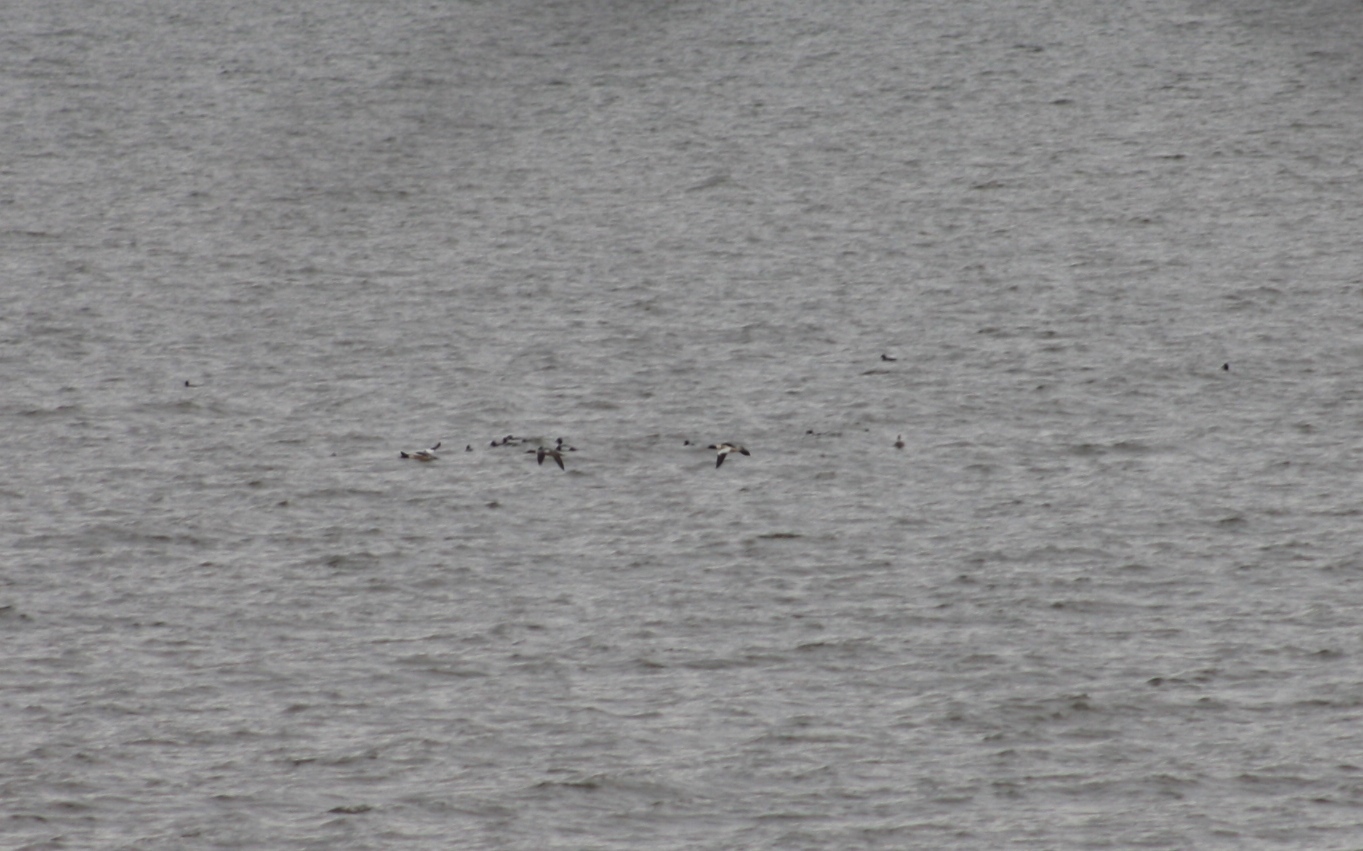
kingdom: Animalia
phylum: Chordata
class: Aves
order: Anseriformes
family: Anatidae
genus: Mergus
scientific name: Mergus merganser
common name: Common merganser
